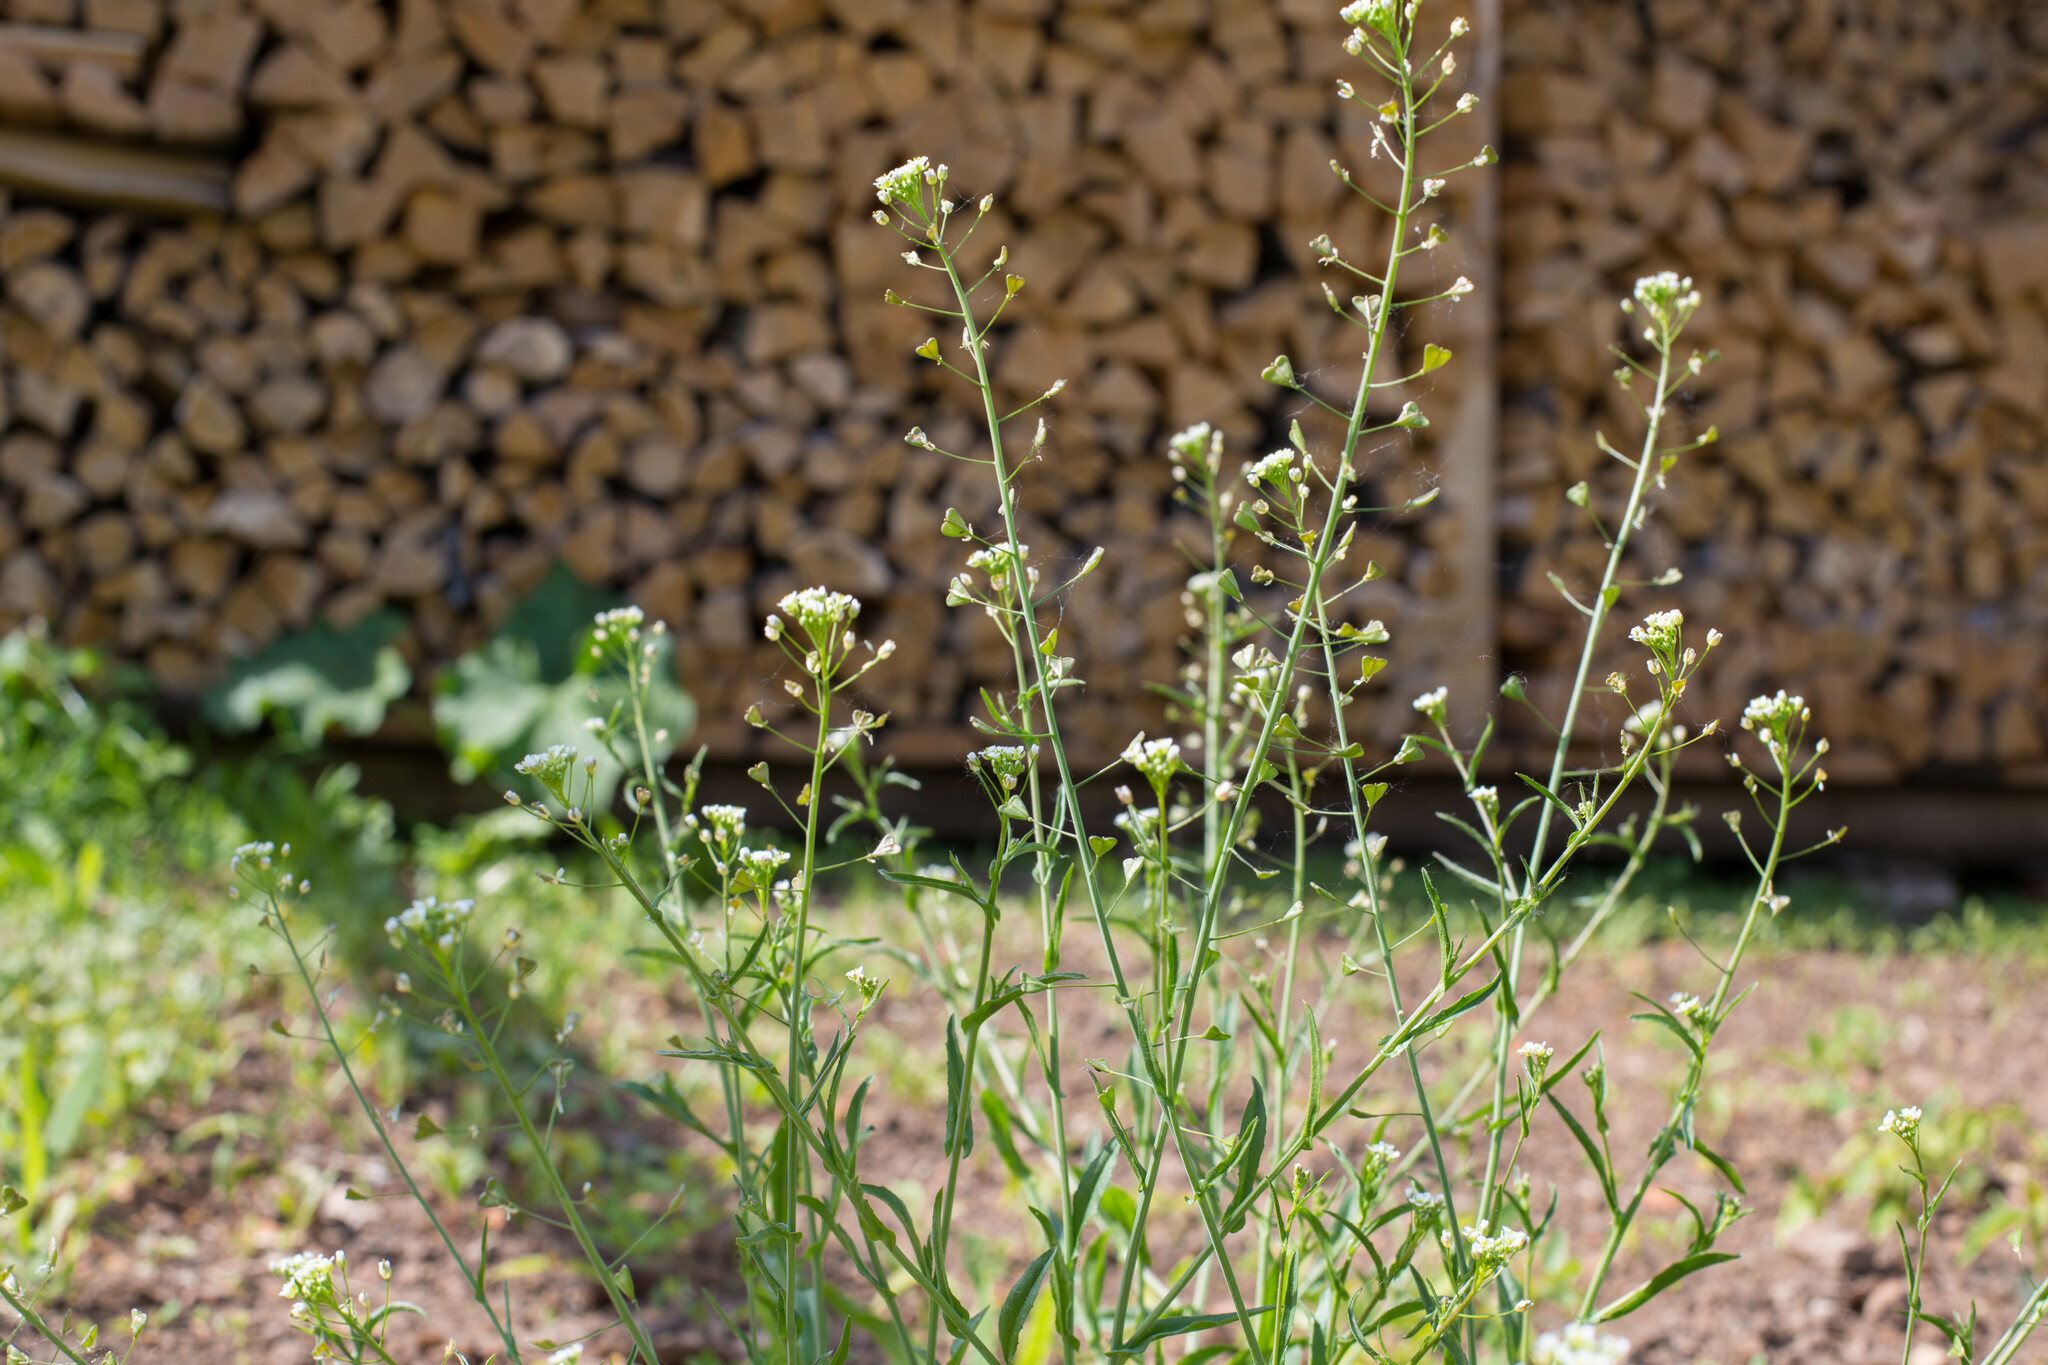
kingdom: Plantae
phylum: Tracheophyta
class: Magnoliopsida
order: Brassicales
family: Brassicaceae
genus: Capsella
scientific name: Capsella bursa-pastoris
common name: Shepherd's purse
